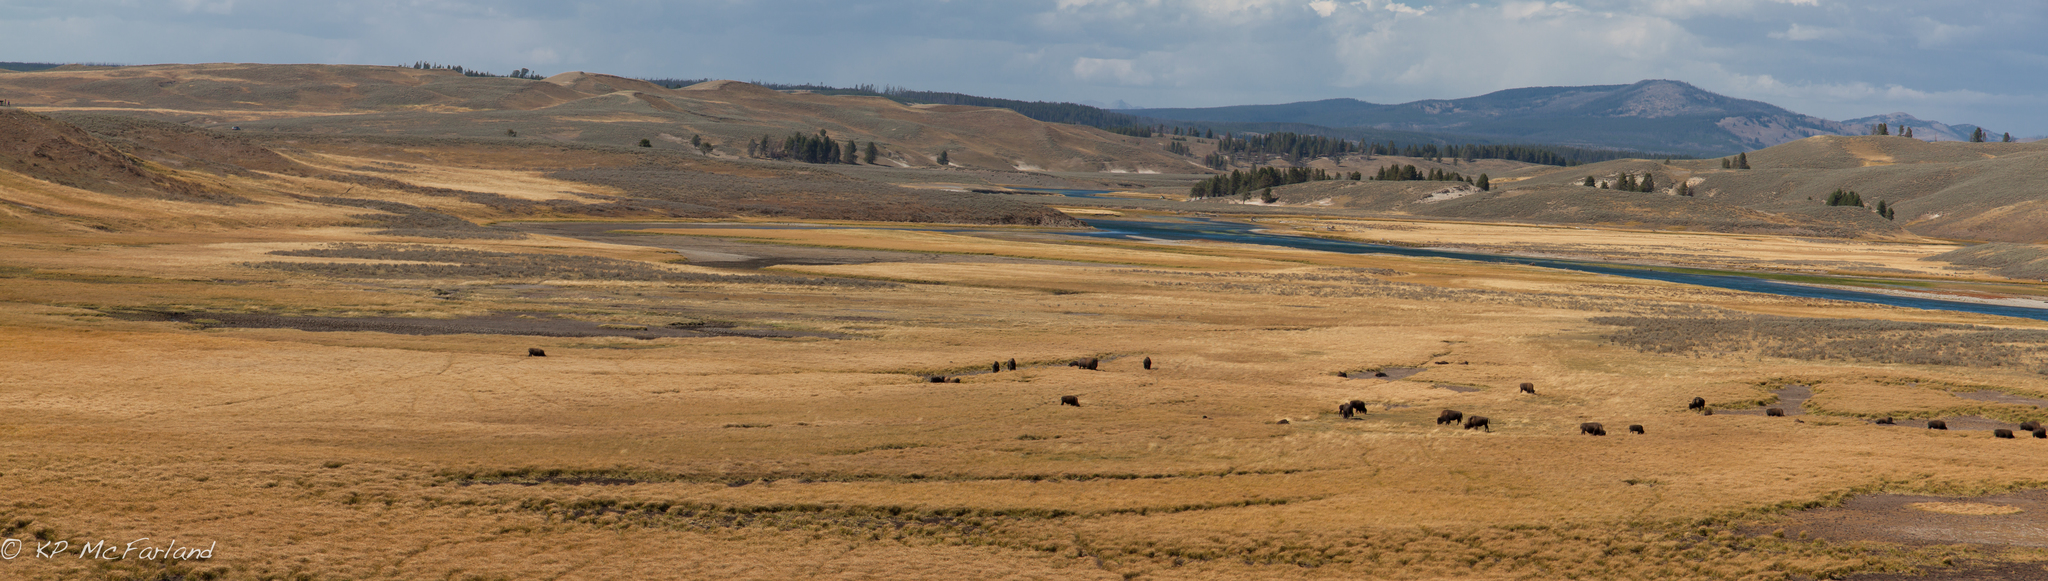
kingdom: Animalia
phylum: Chordata
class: Mammalia
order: Artiodactyla
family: Bovidae
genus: Bison
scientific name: Bison bison
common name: American bison
